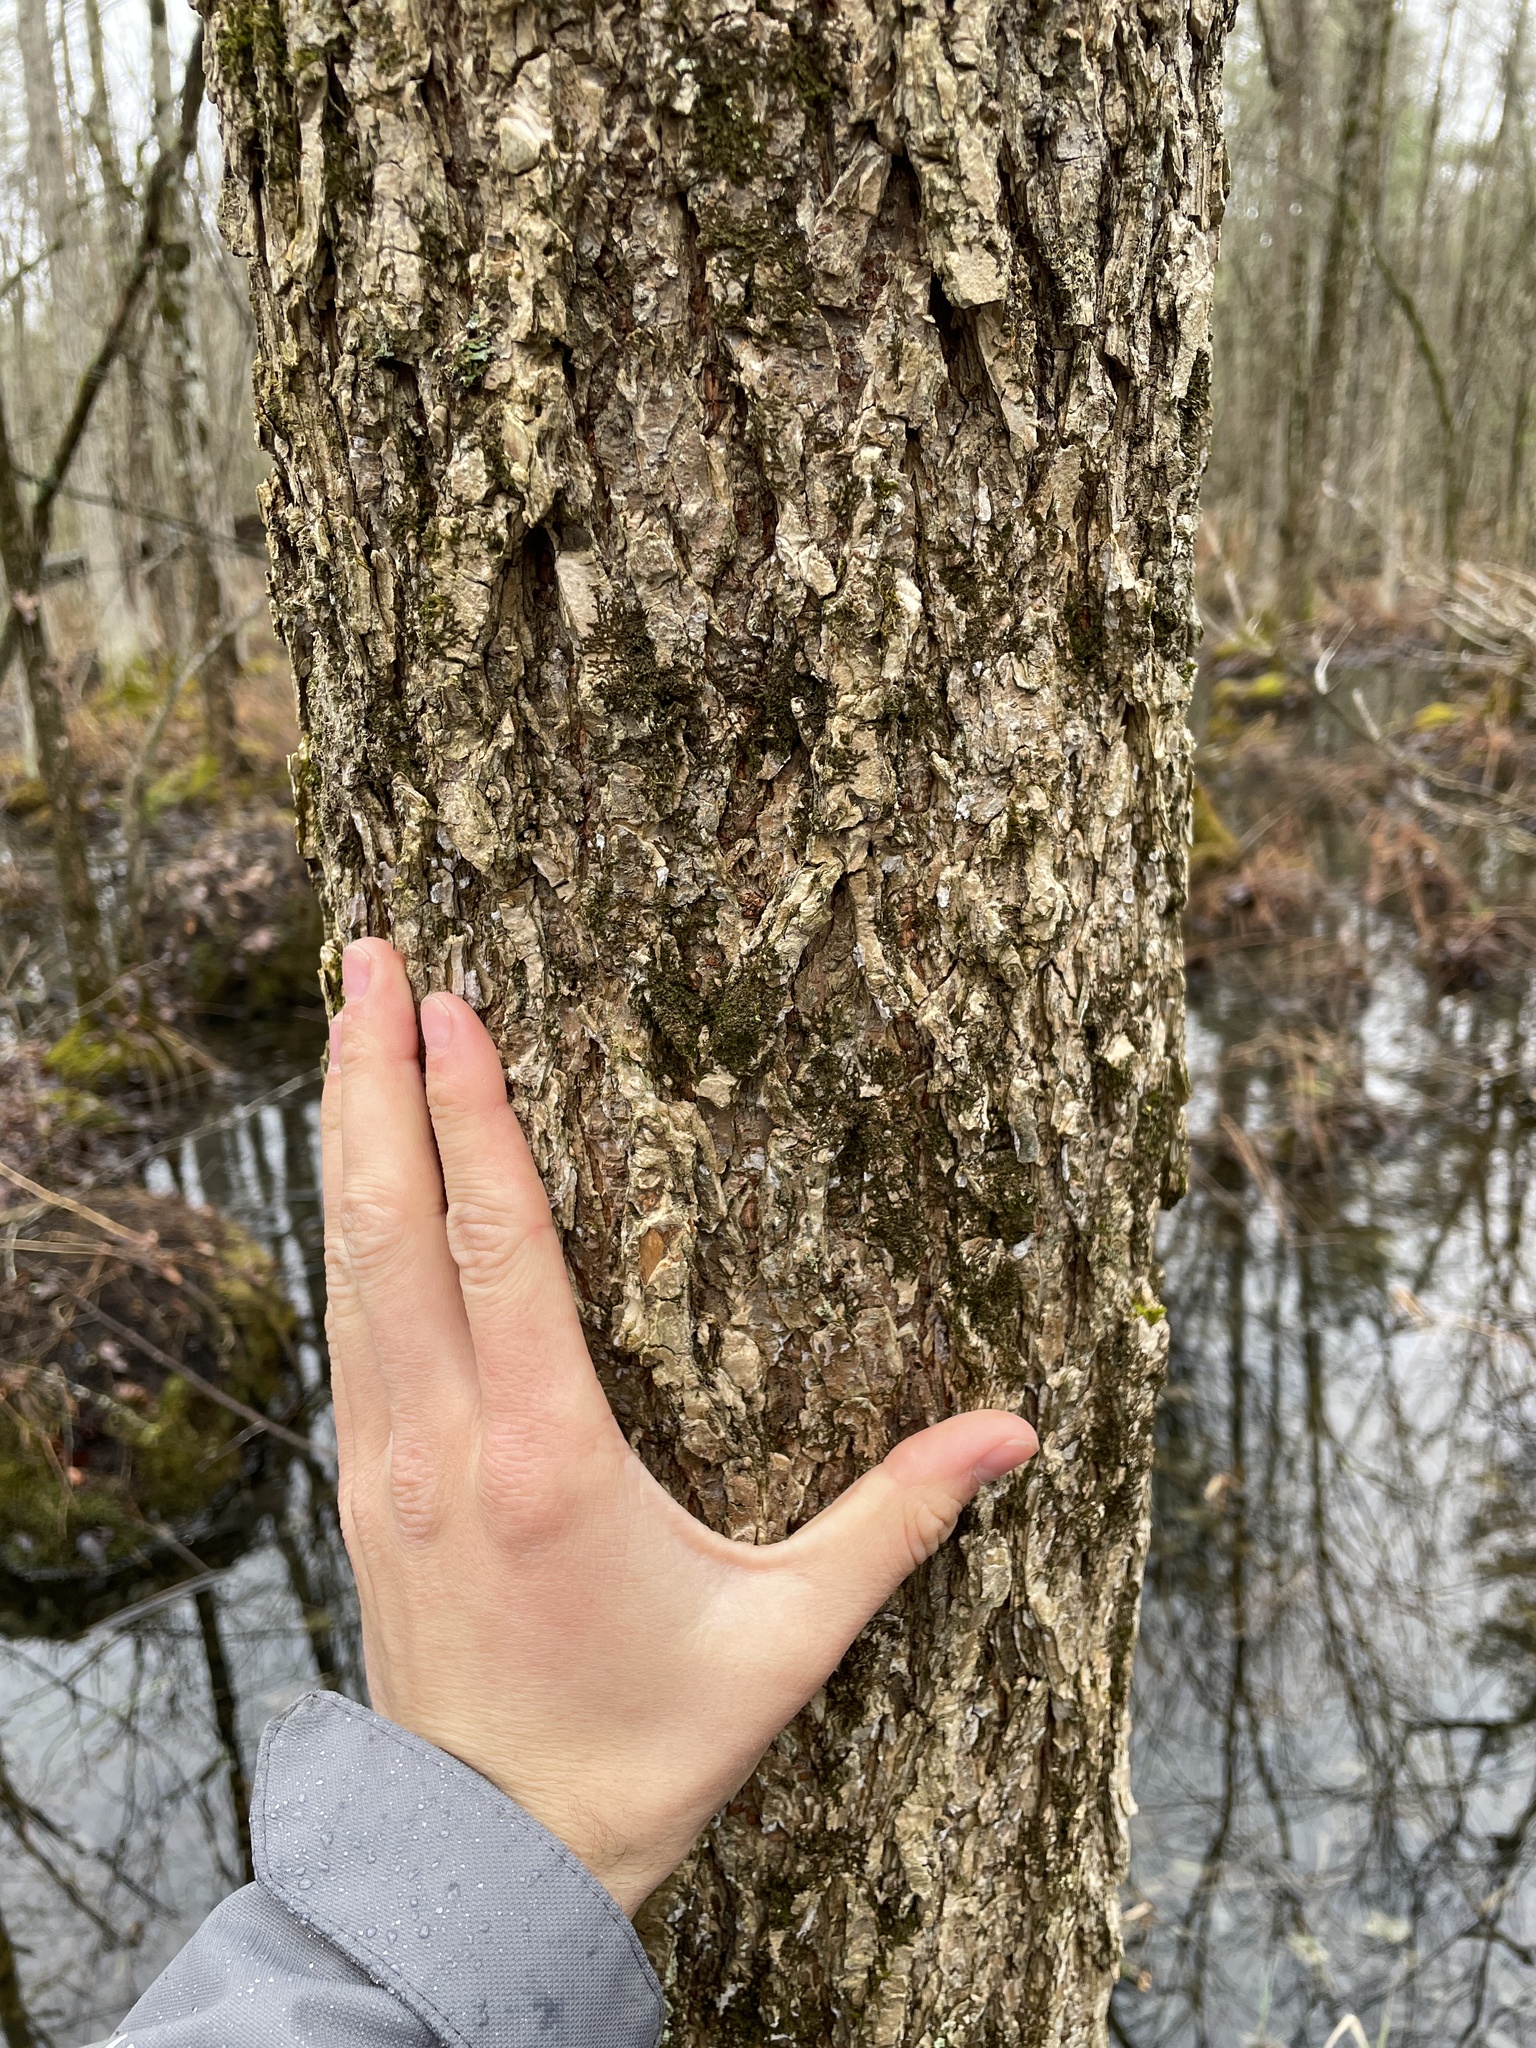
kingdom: Plantae
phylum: Tracheophyta
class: Magnoliopsida
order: Rosales
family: Ulmaceae
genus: Ulmus
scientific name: Ulmus americana
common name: American elm
